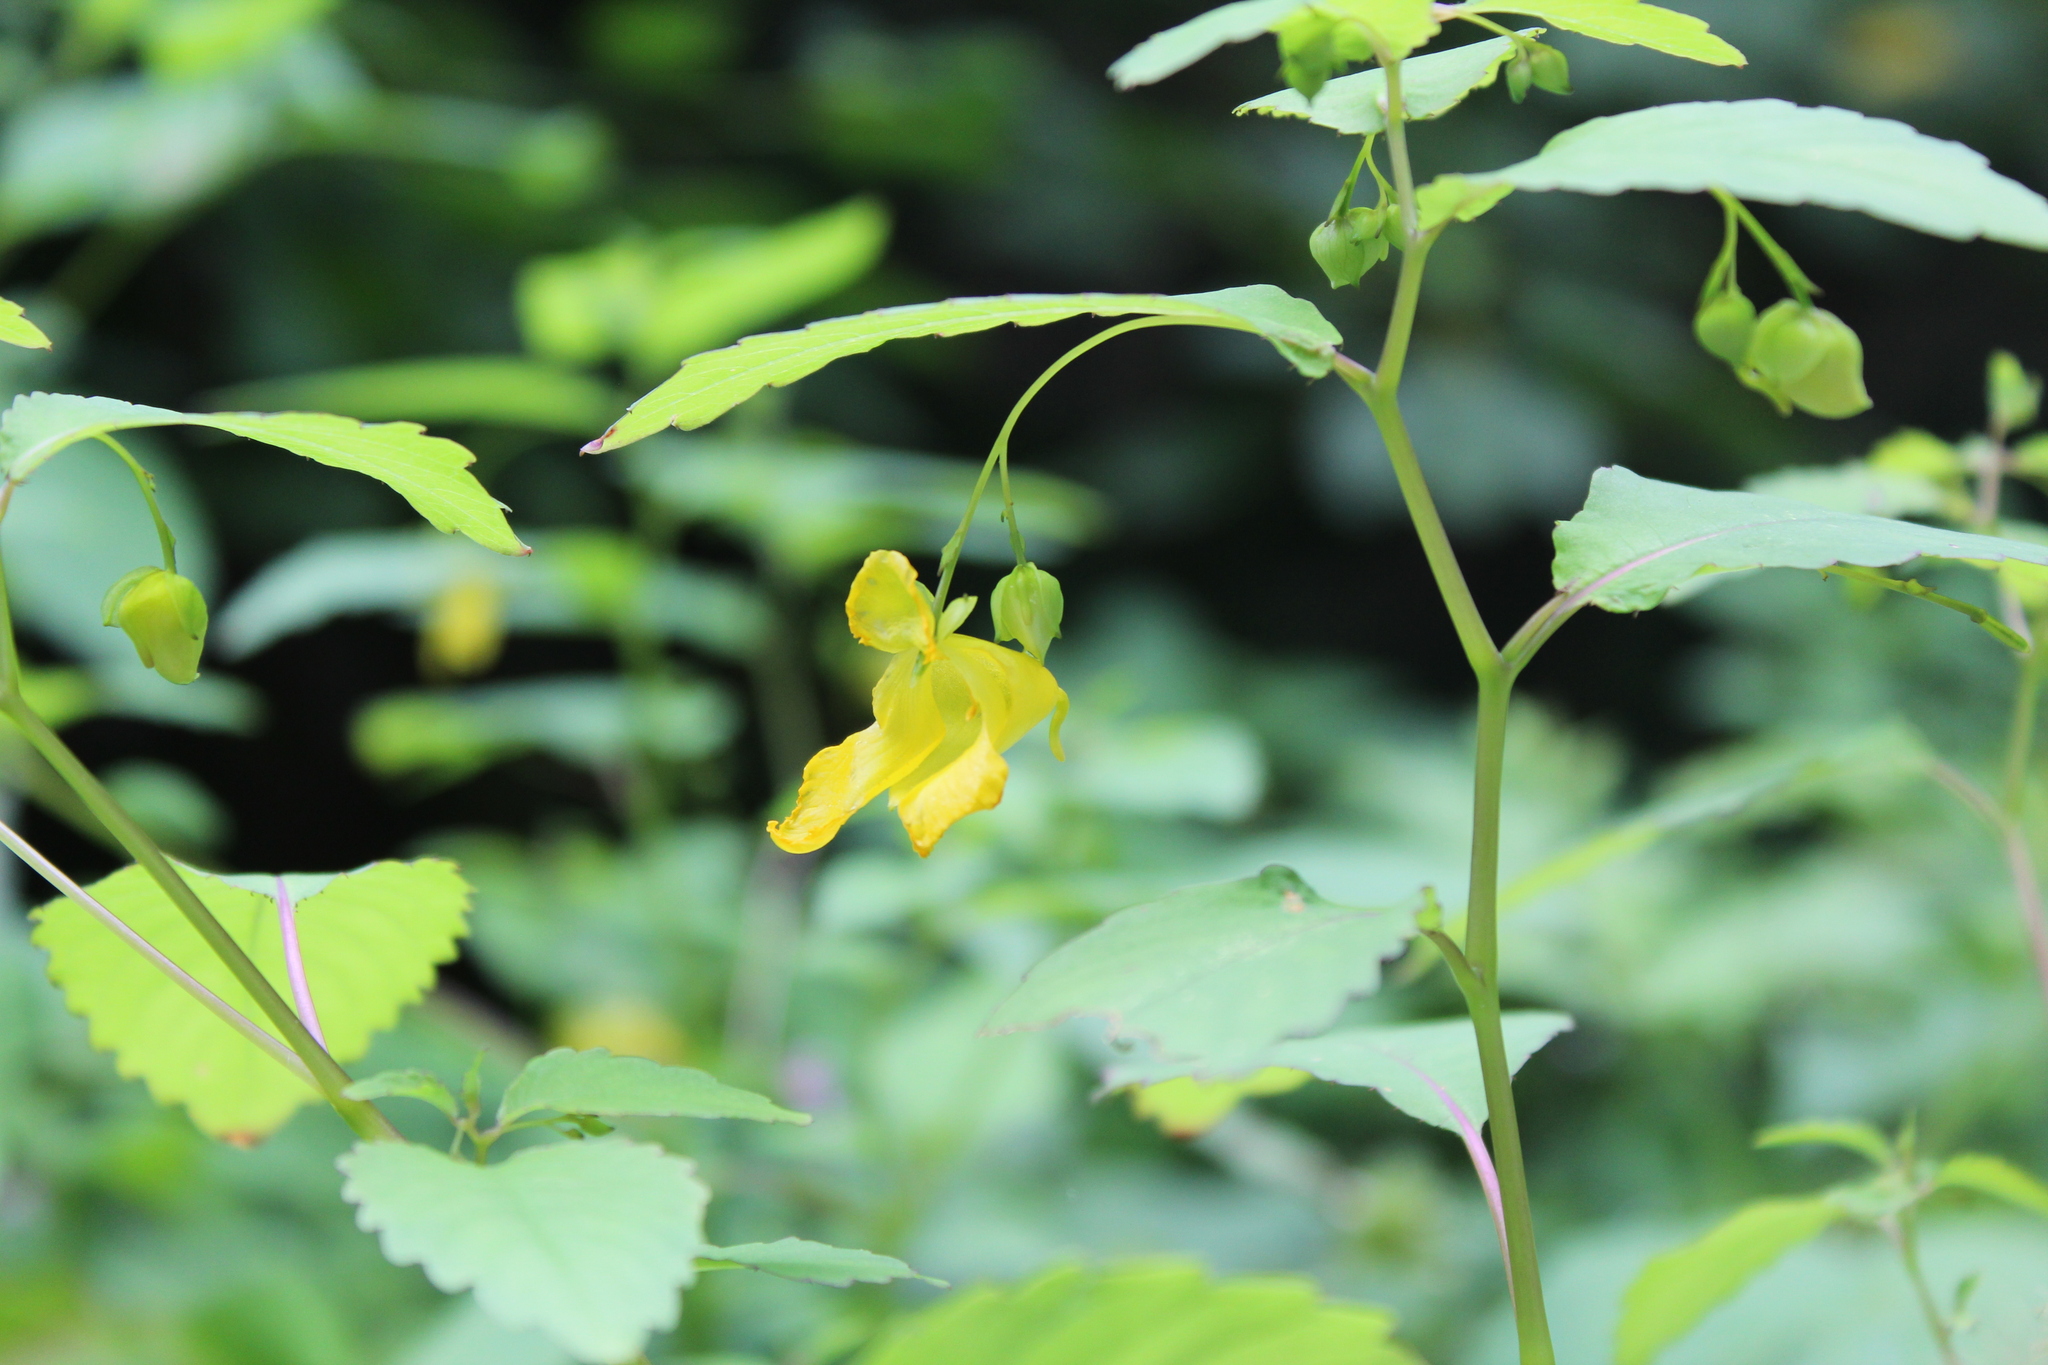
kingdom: Plantae
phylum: Tracheophyta
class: Magnoliopsida
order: Ericales
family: Balsaminaceae
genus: Impatiens
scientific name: Impatiens pallida
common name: Pale snapweed
